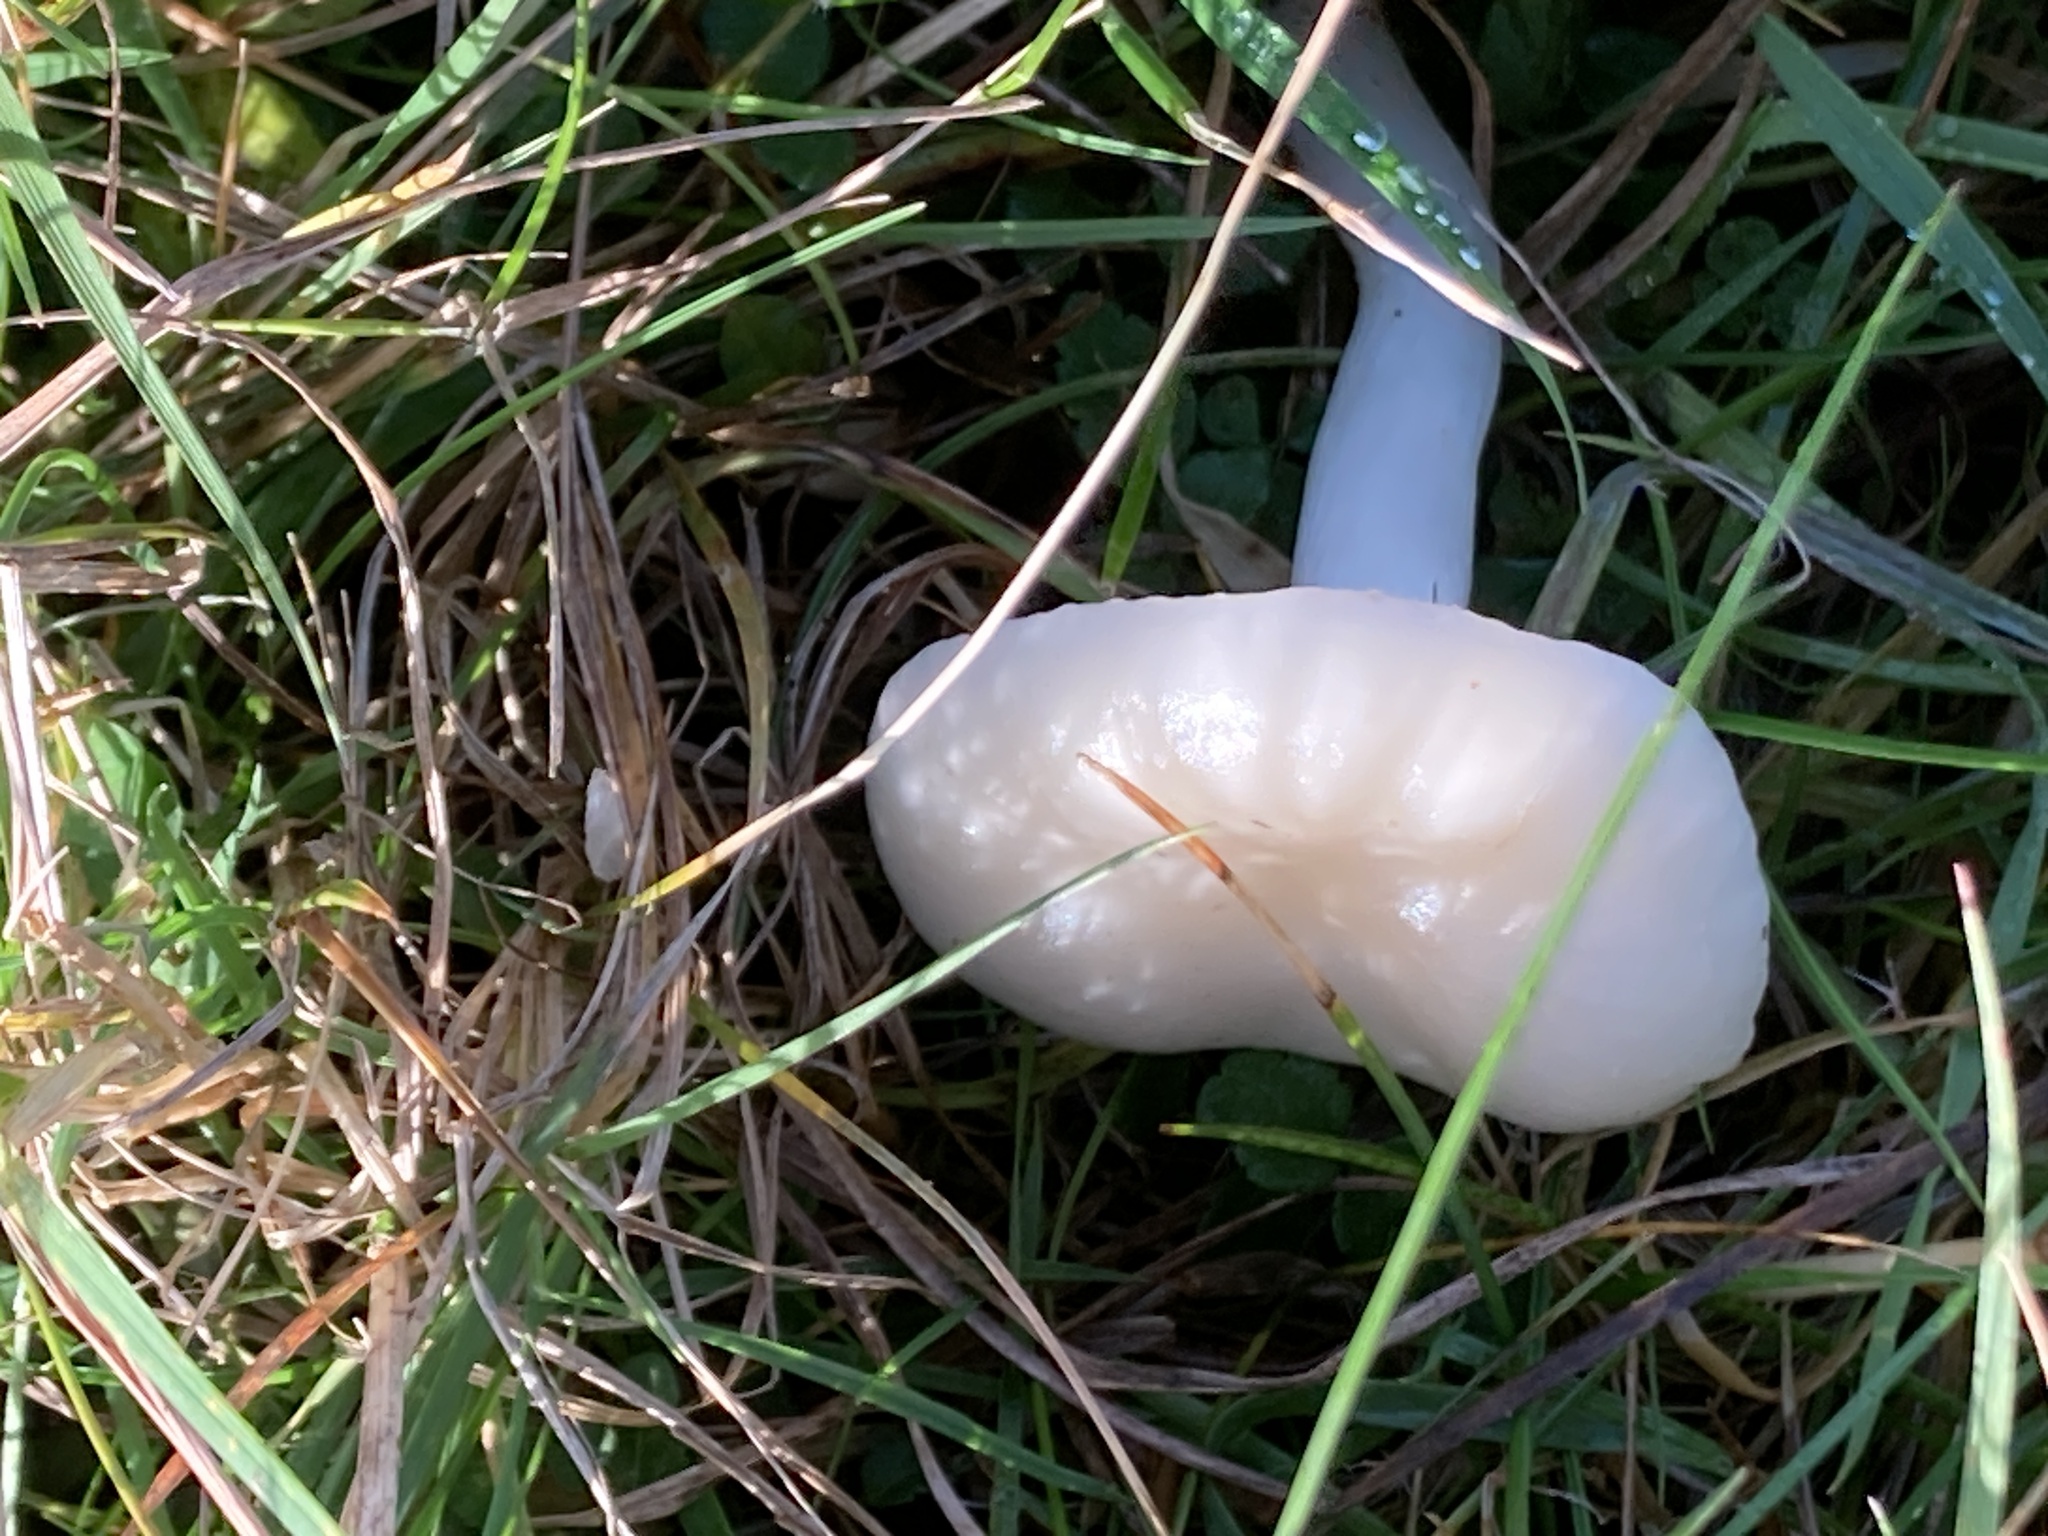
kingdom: Fungi
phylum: Basidiomycota
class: Agaricomycetes
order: Agaricales
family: Hygrophoraceae
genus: Cuphophyllus
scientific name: Cuphophyllus virgineus
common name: Snowy waxcap
